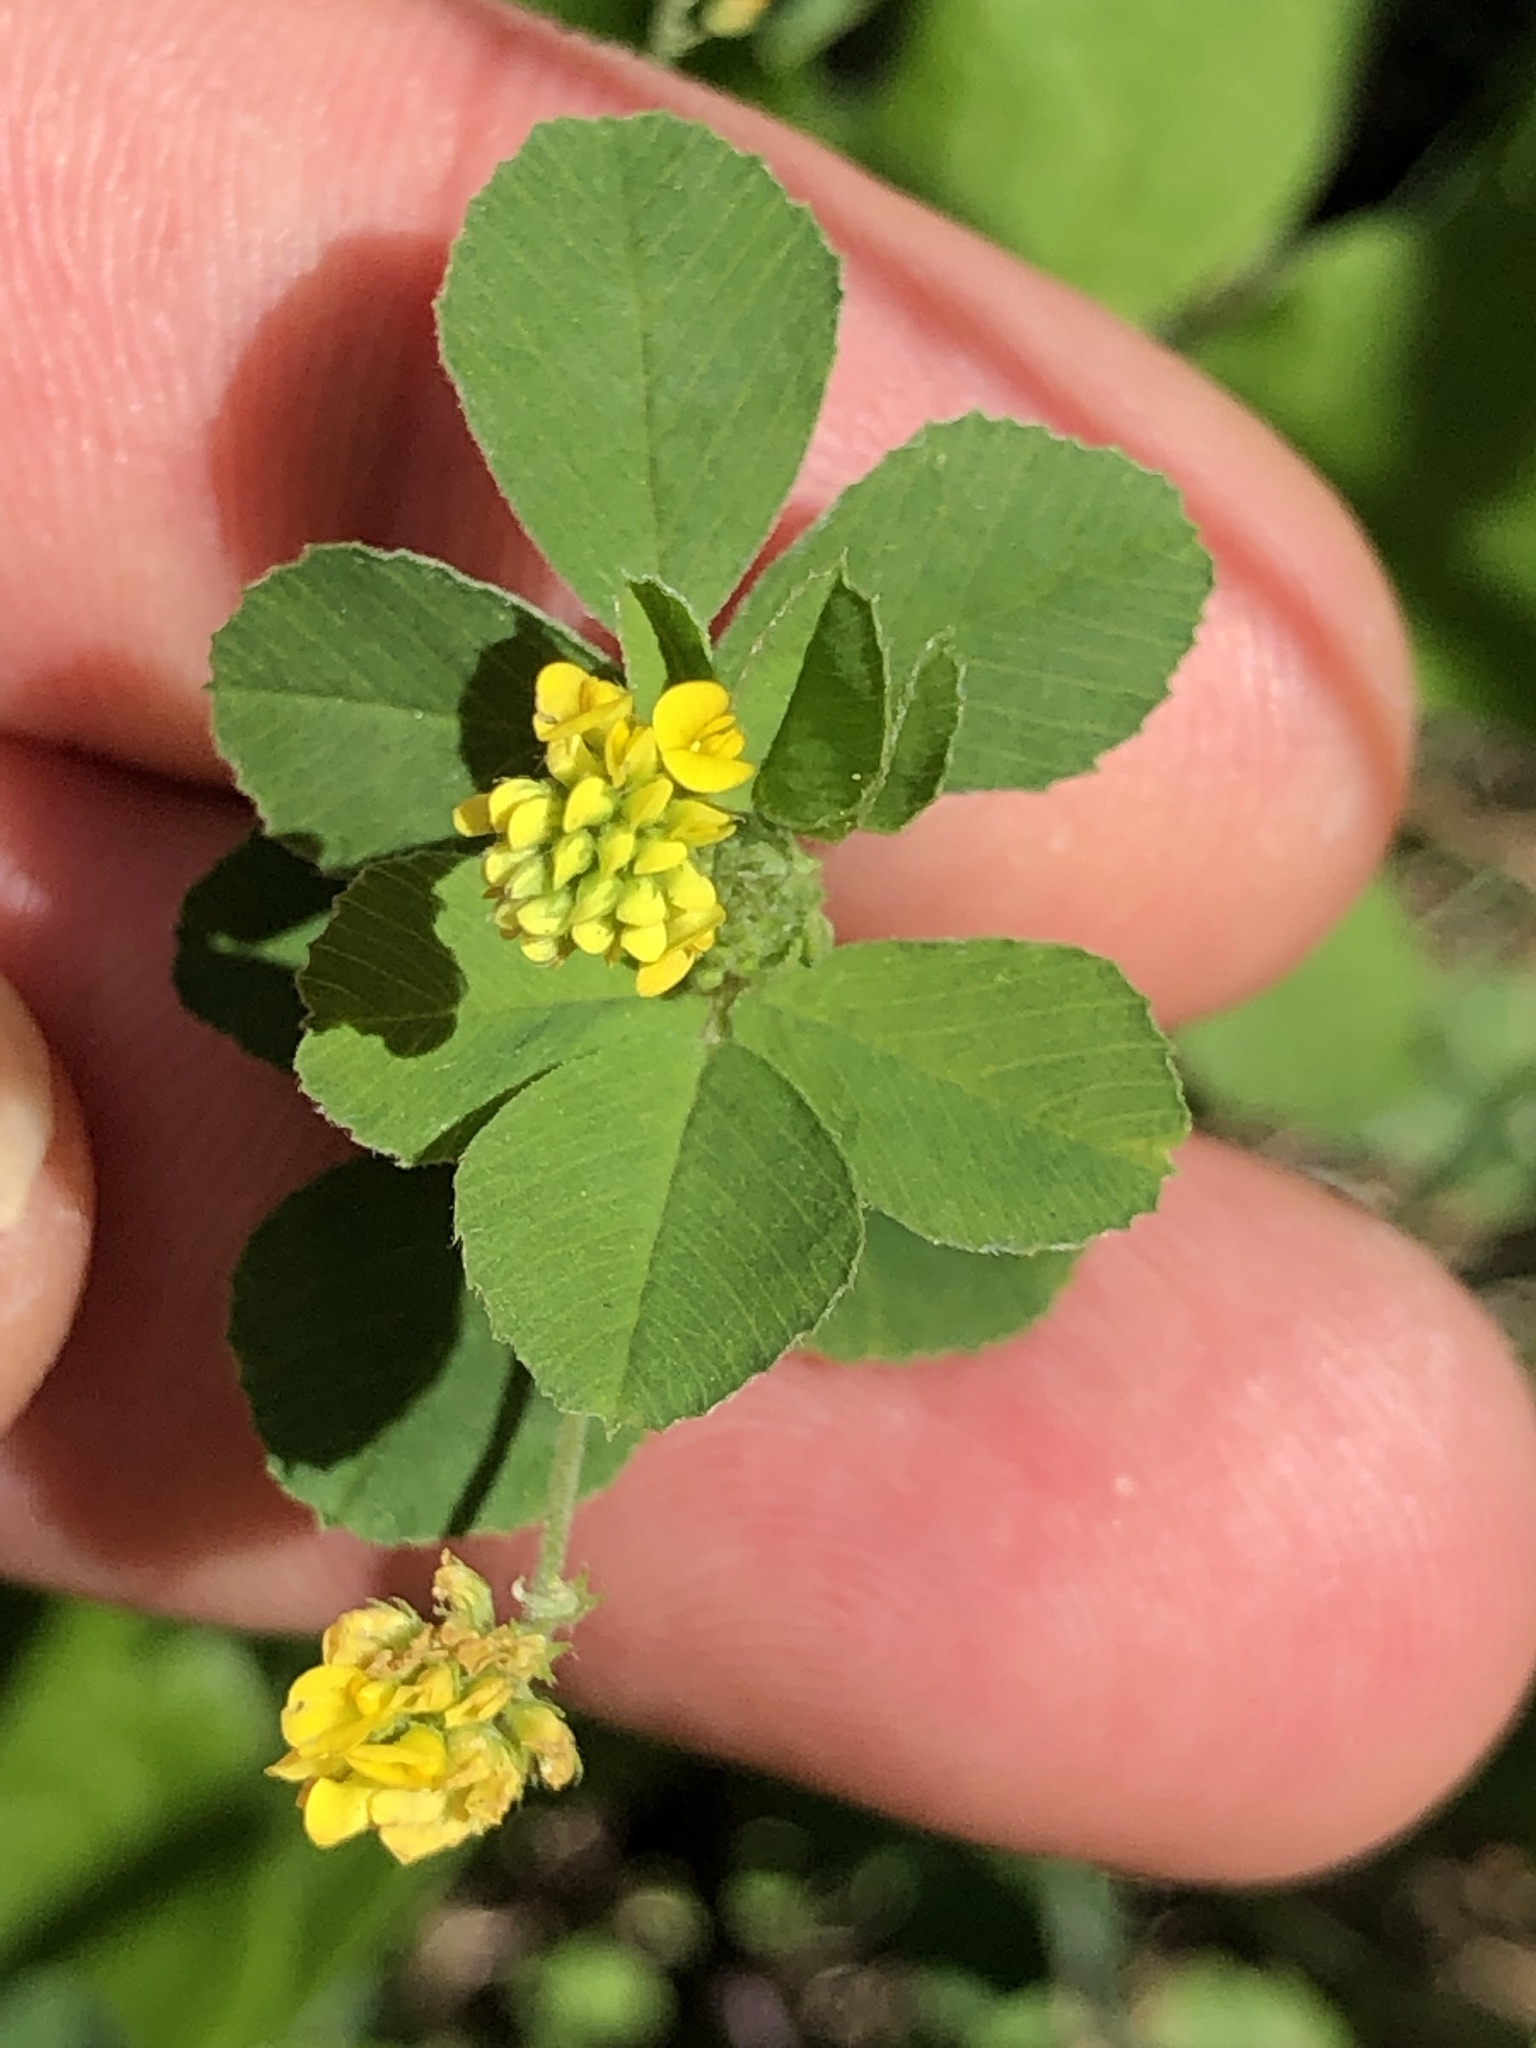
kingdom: Plantae
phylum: Tracheophyta
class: Magnoliopsida
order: Fabales
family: Fabaceae
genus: Medicago
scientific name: Medicago lupulina
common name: Black medick
